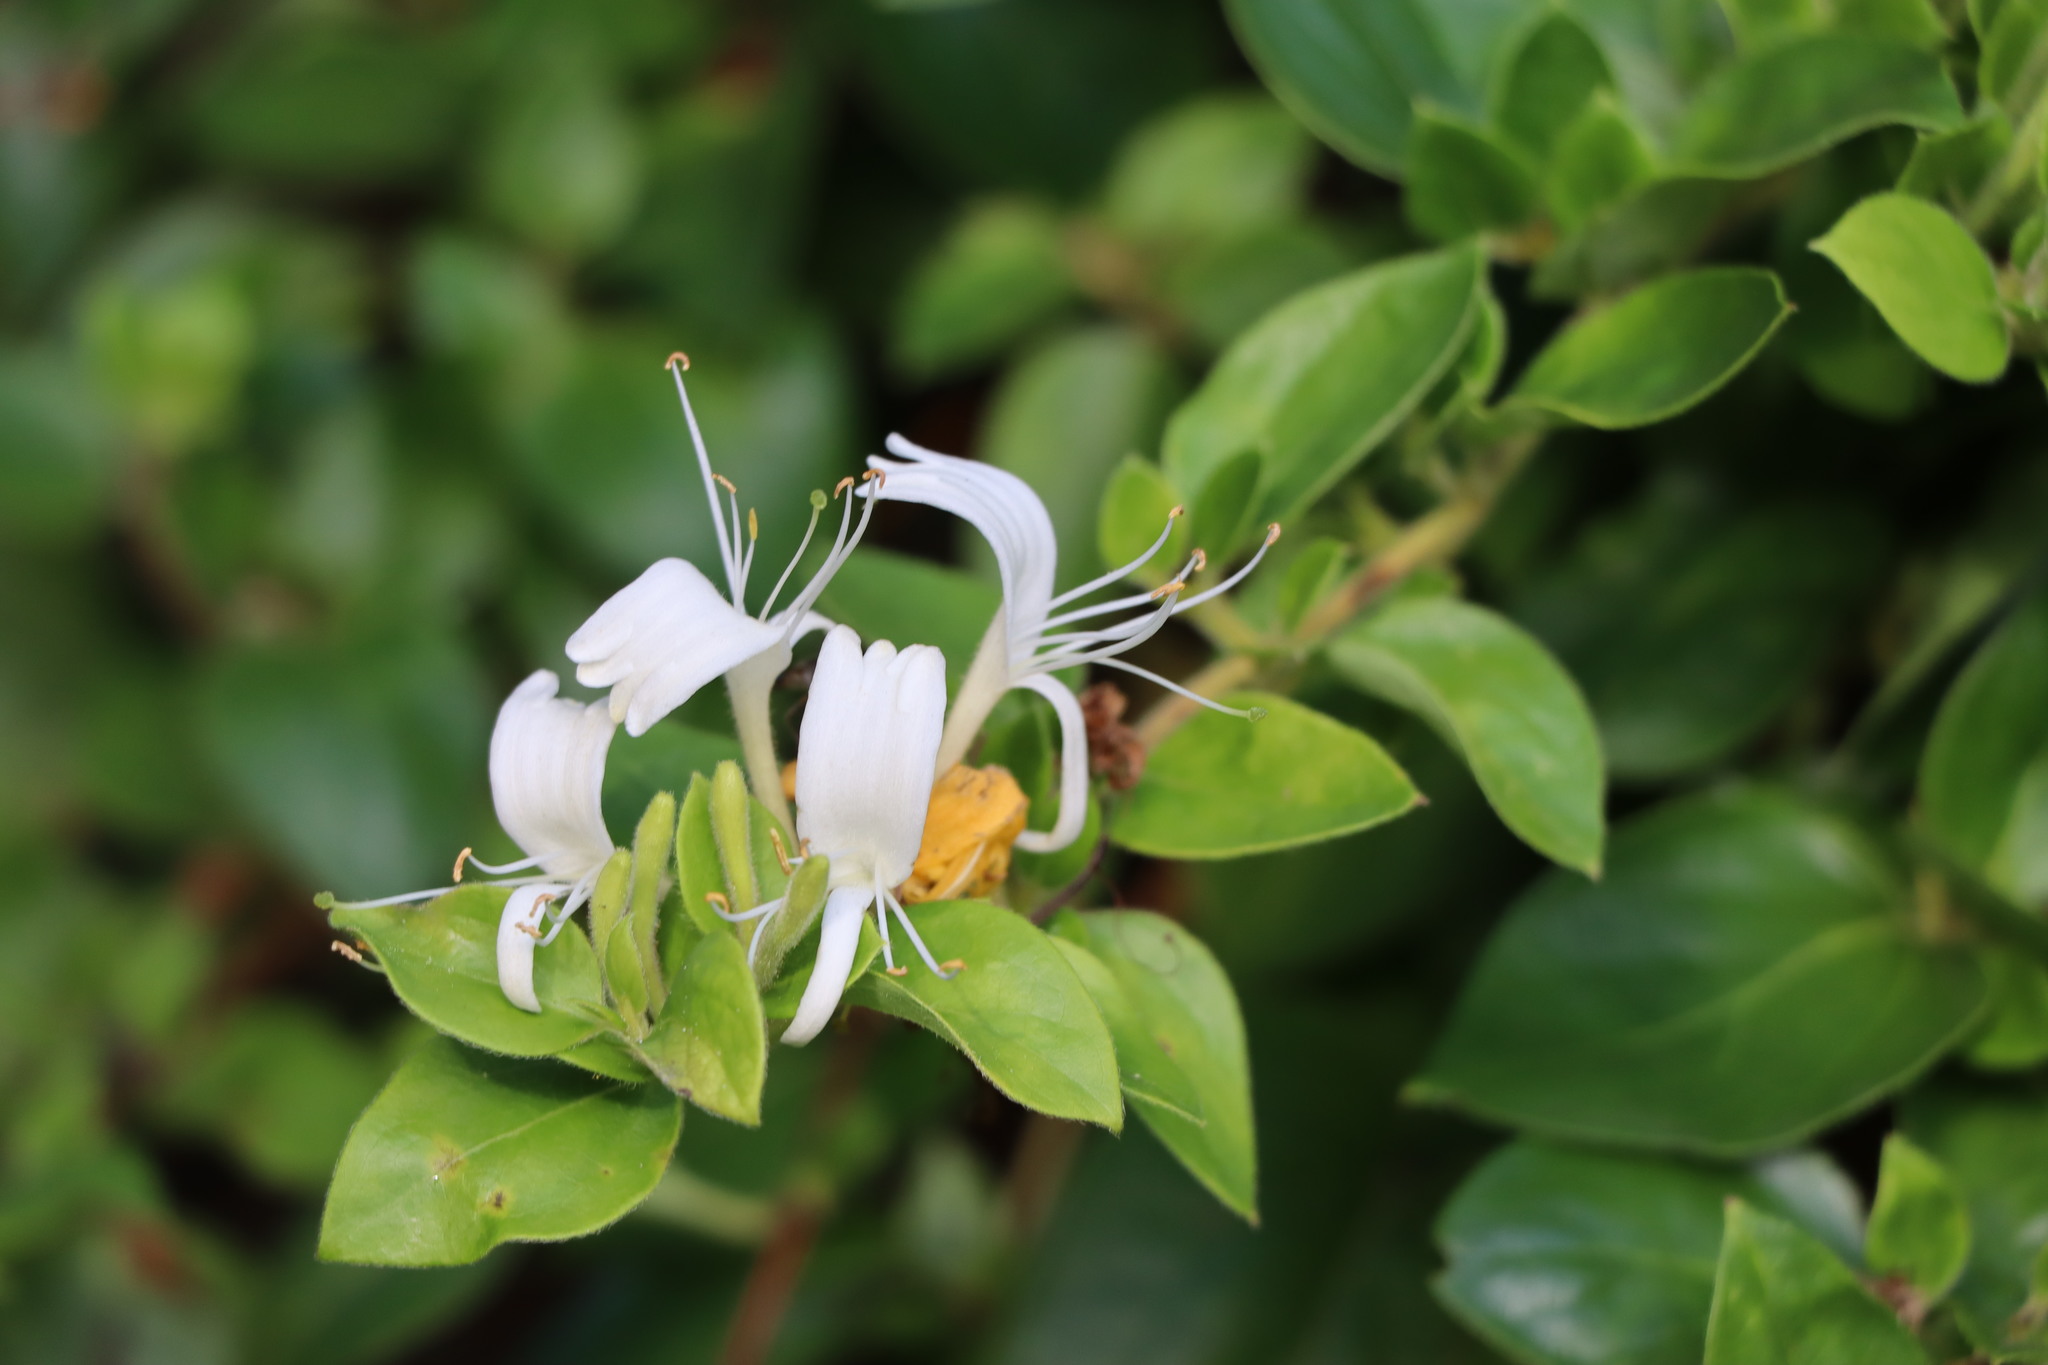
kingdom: Plantae
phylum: Tracheophyta
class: Magnoliopsida
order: Dipsacales
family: Caprifoliaceae
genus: Lonicera
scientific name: Lonicera japonica
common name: Japanese honeysuckle
